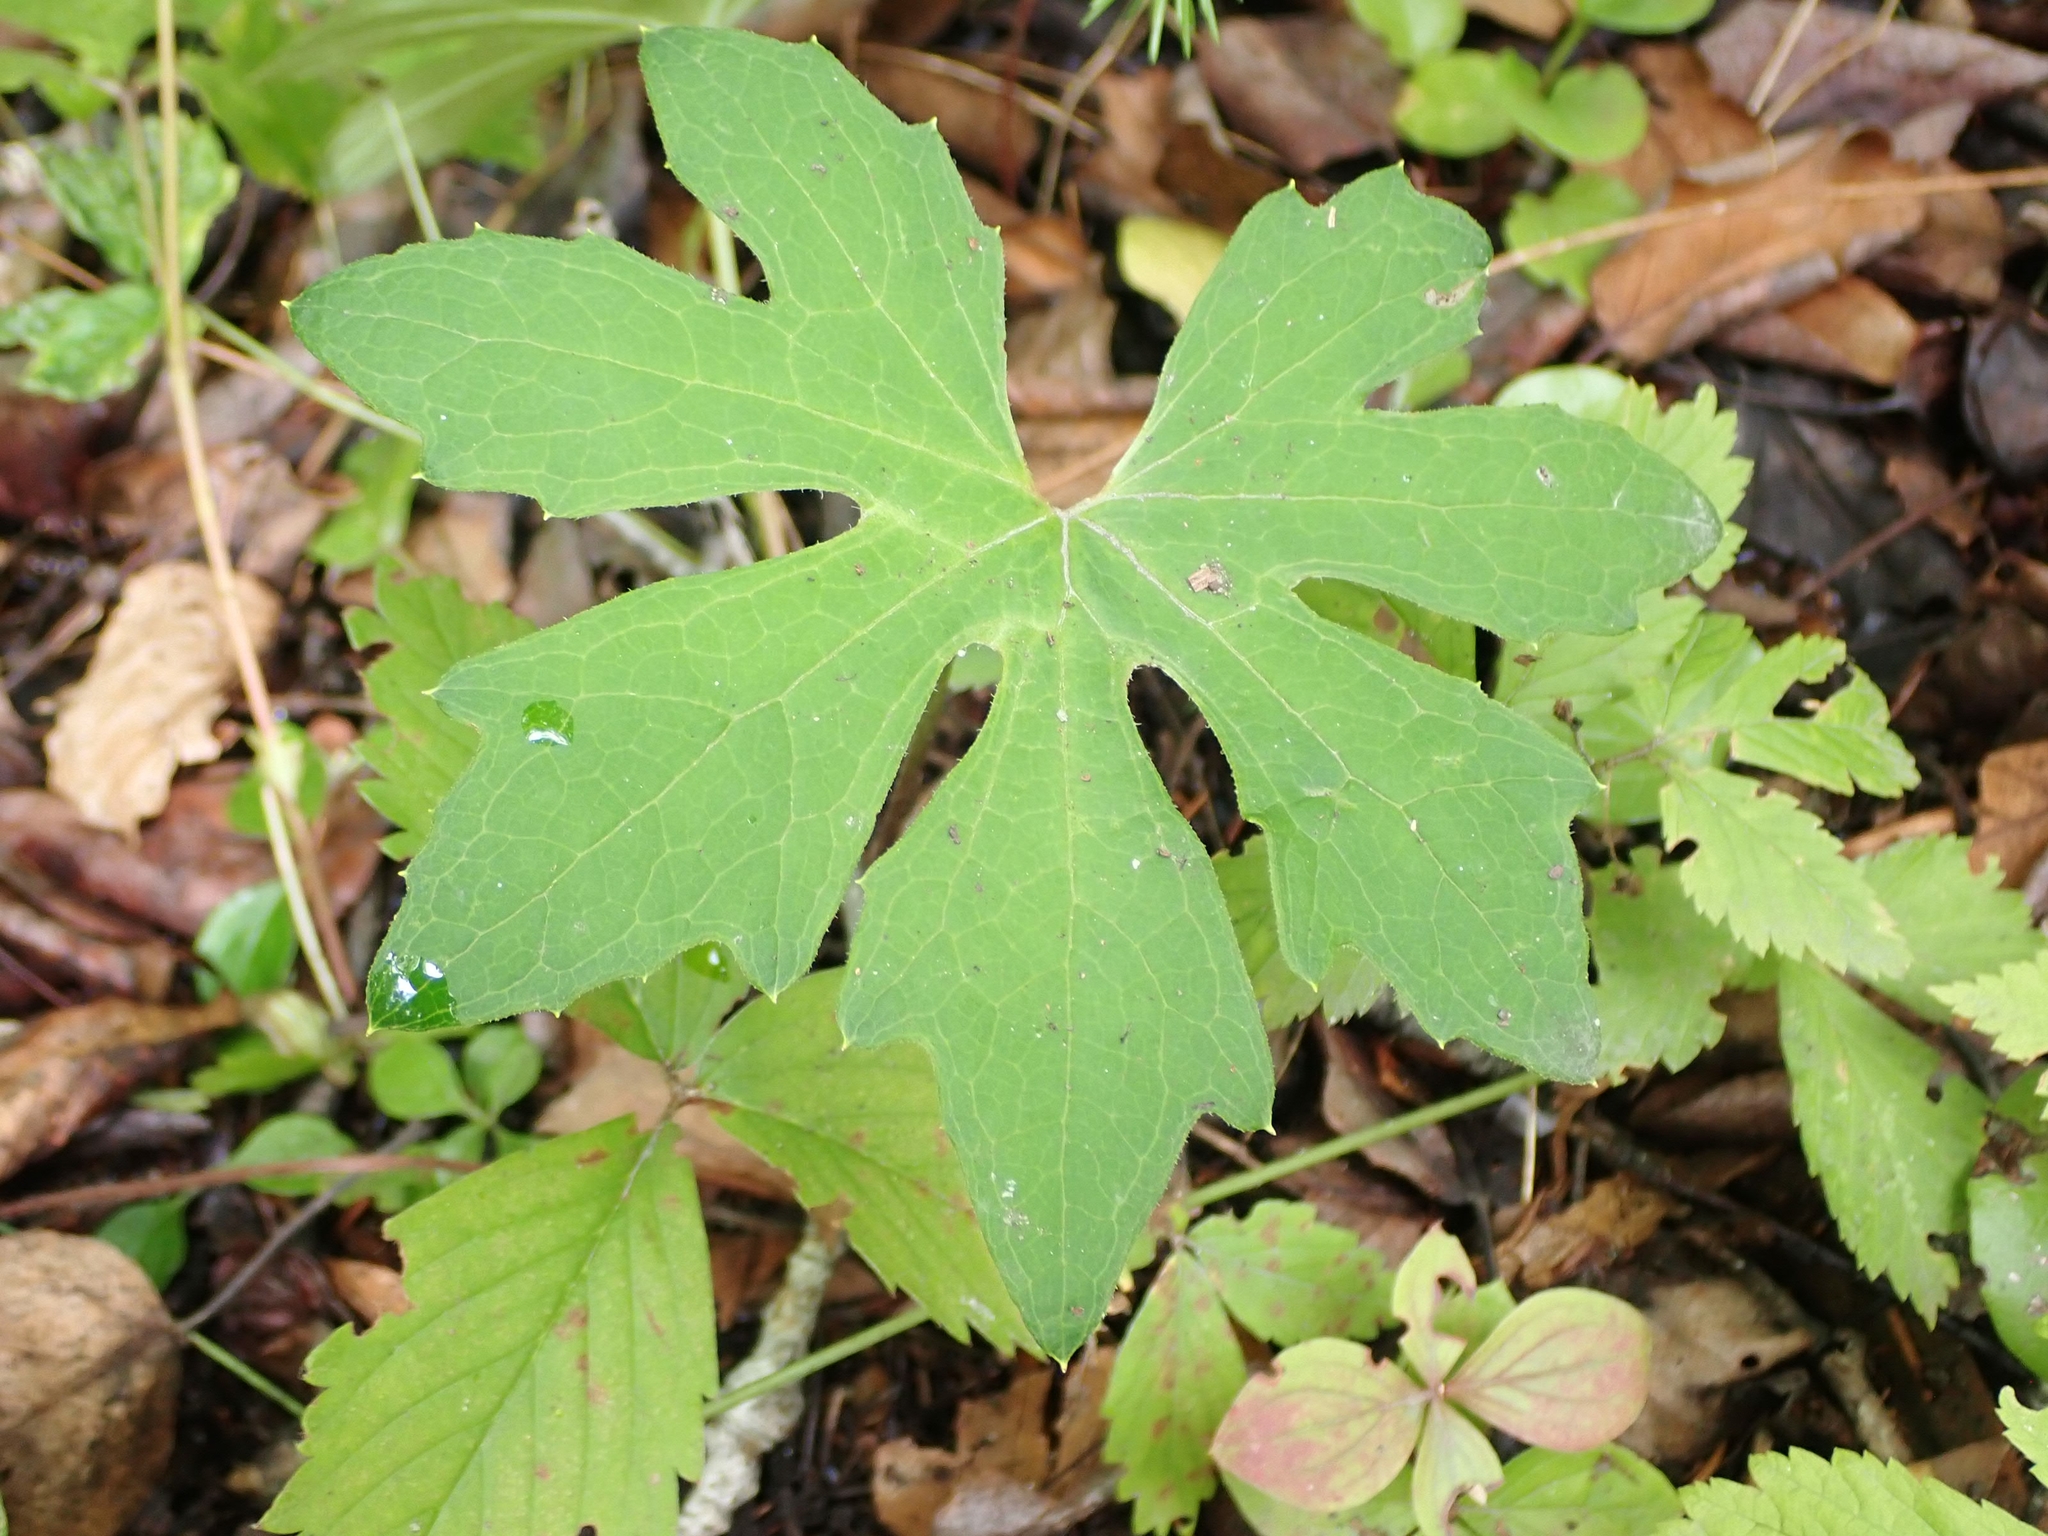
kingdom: Plantae
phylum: Tracheophyta
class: Magnoliopsida
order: Asterales
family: Asteraceae
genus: Petasites
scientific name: Petasites frigidus
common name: Arctic butterbur
